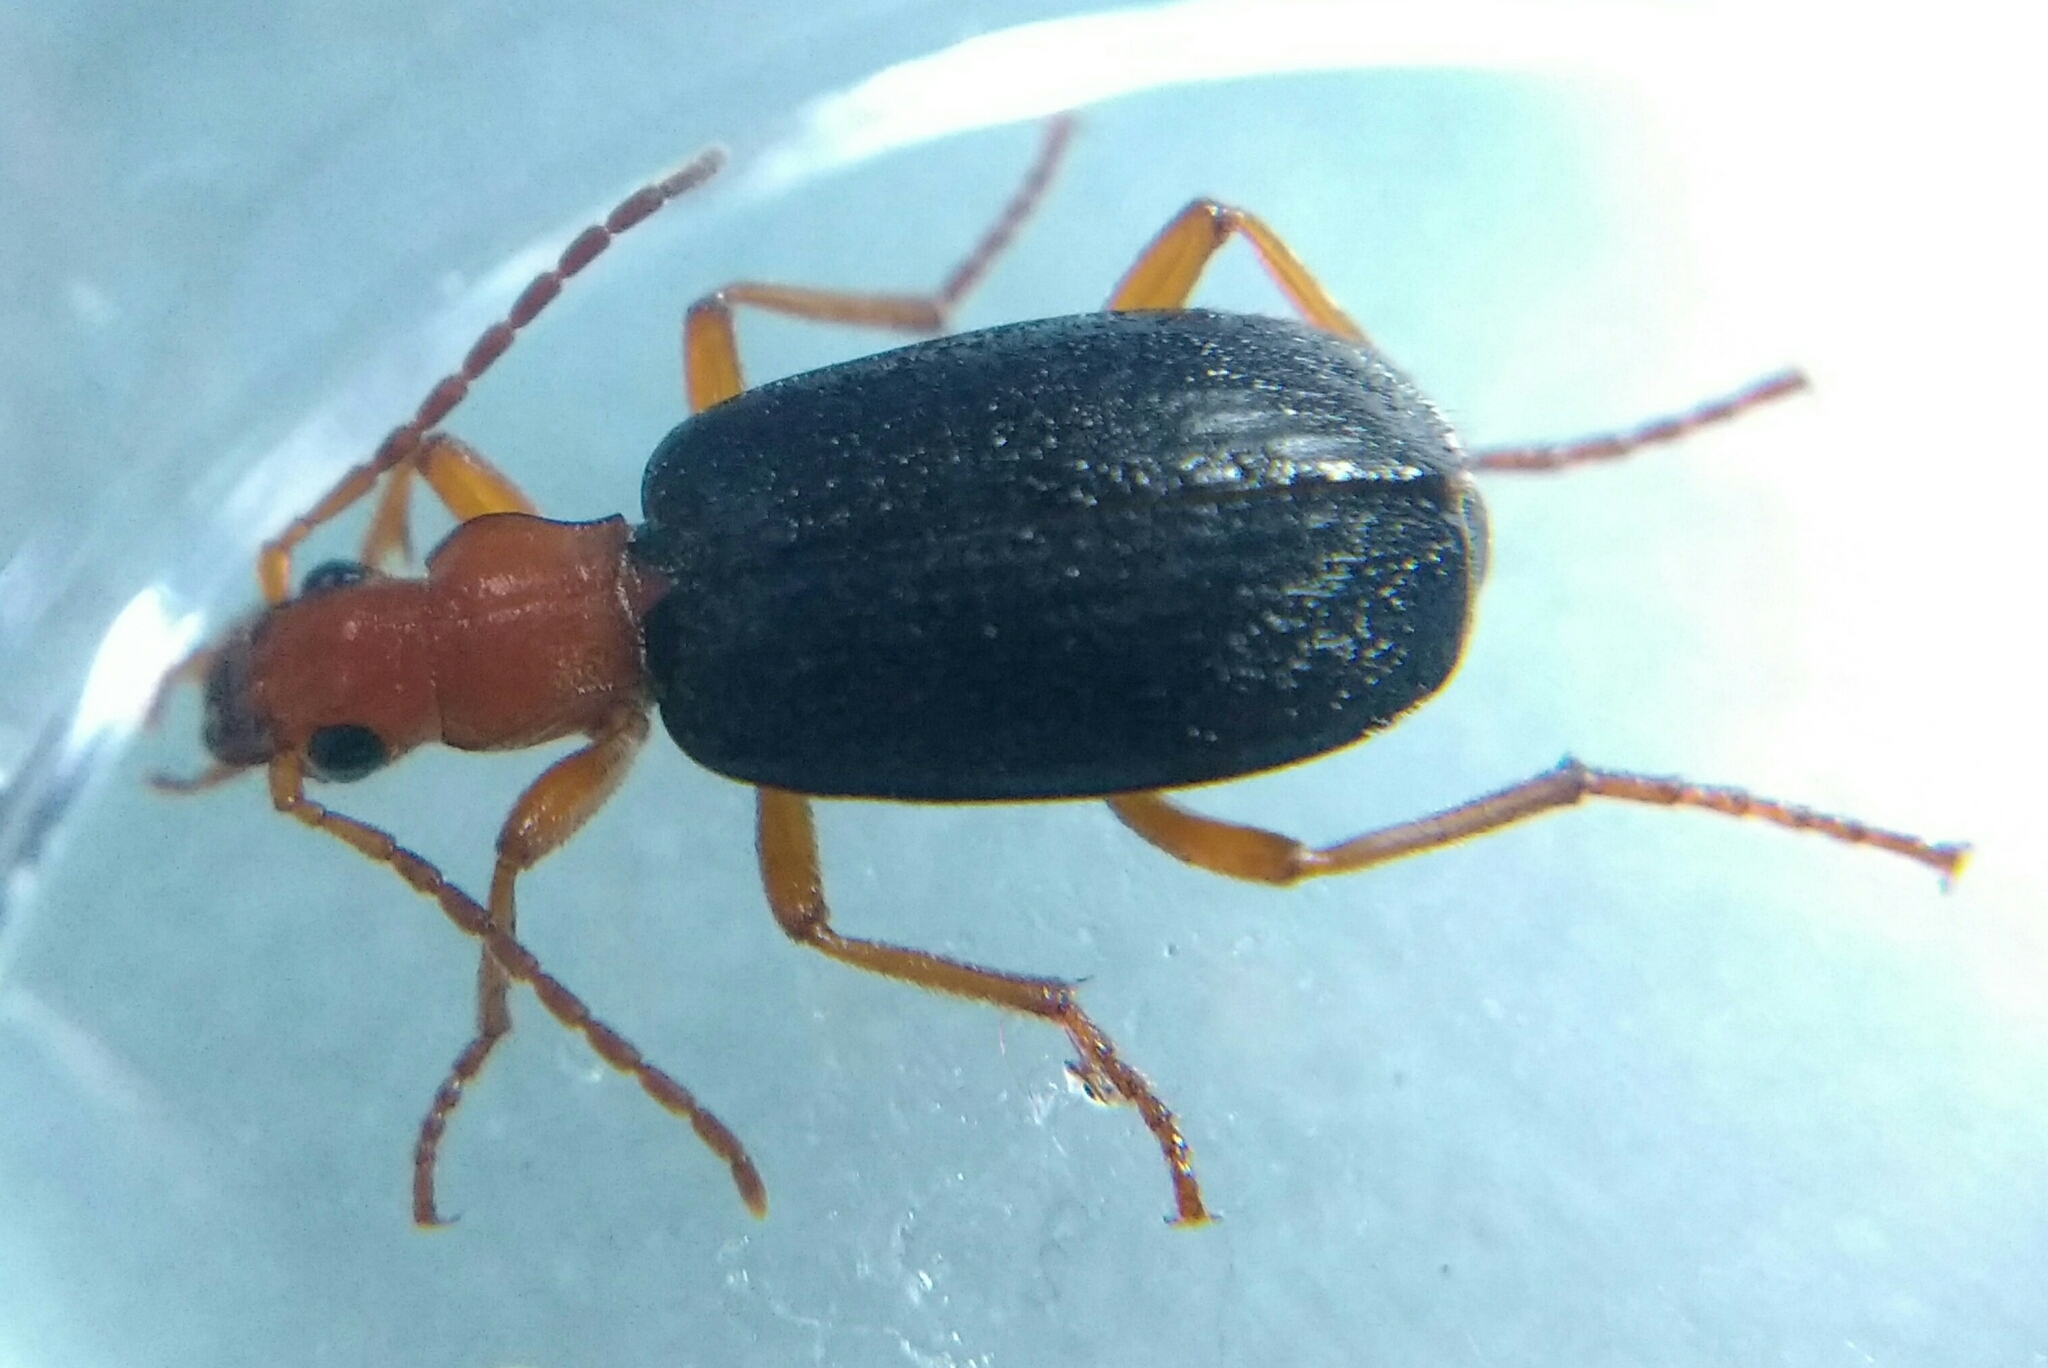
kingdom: Animalia
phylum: Arthropoda
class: Insecta
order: Coleoptera
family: Carabidae
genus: Brachinus
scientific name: Brachinus explodens
